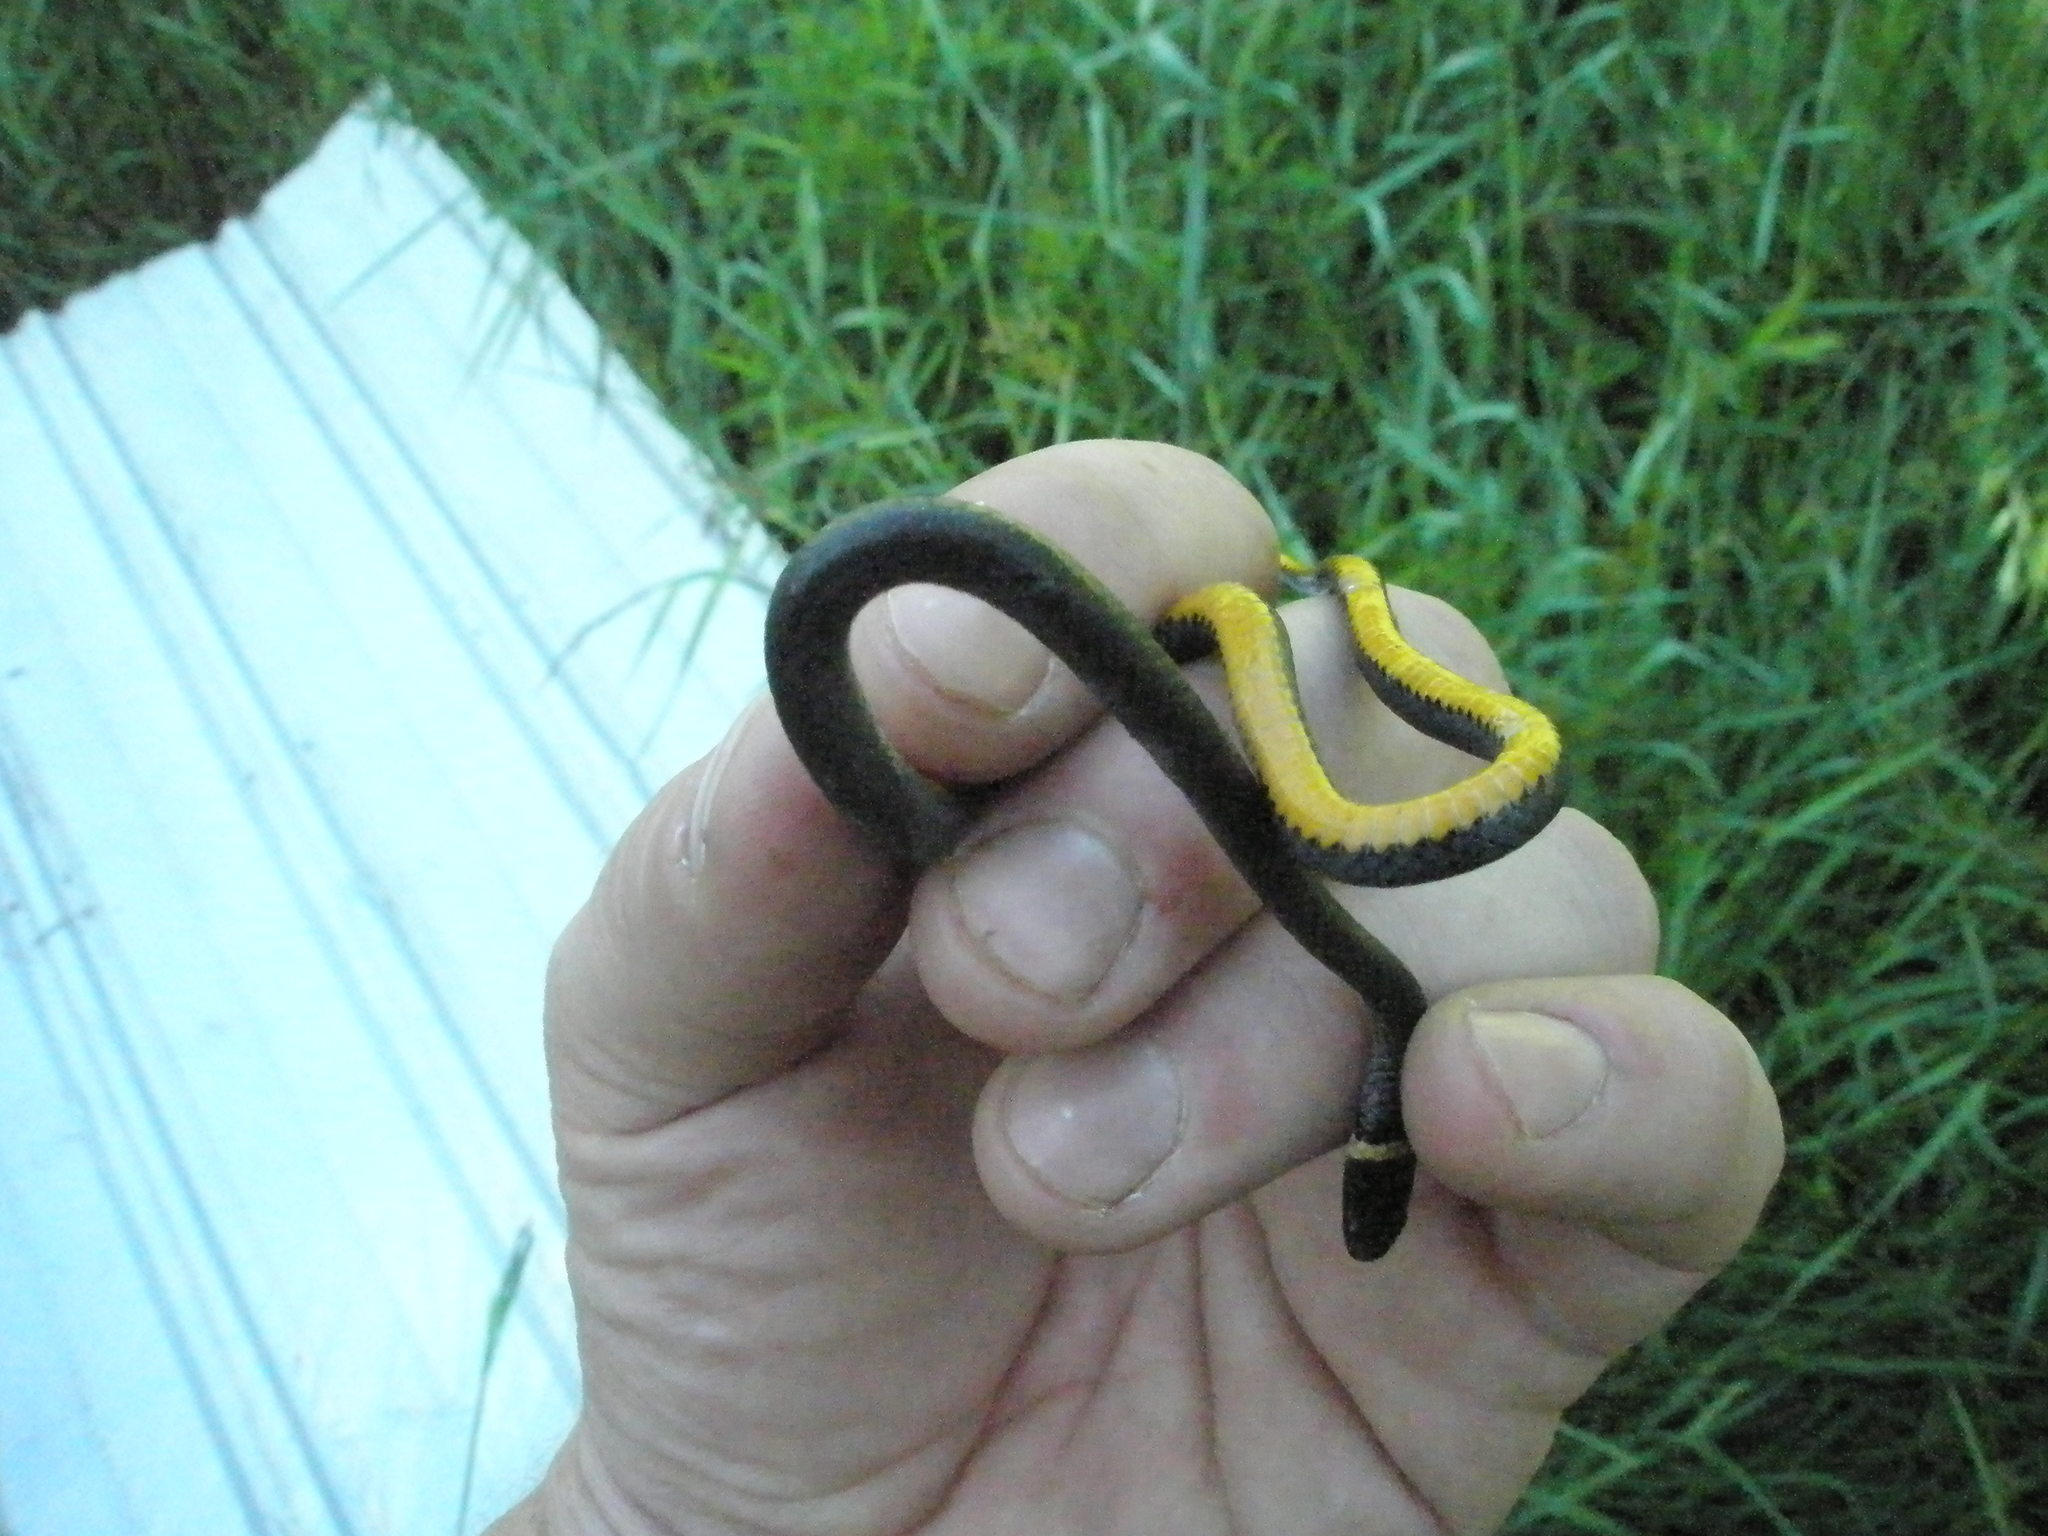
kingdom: Animalia
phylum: Chordata
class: Squamata
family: Colubridae
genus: Diadophis
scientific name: Diadophis punctatus
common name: Ringneck snake
